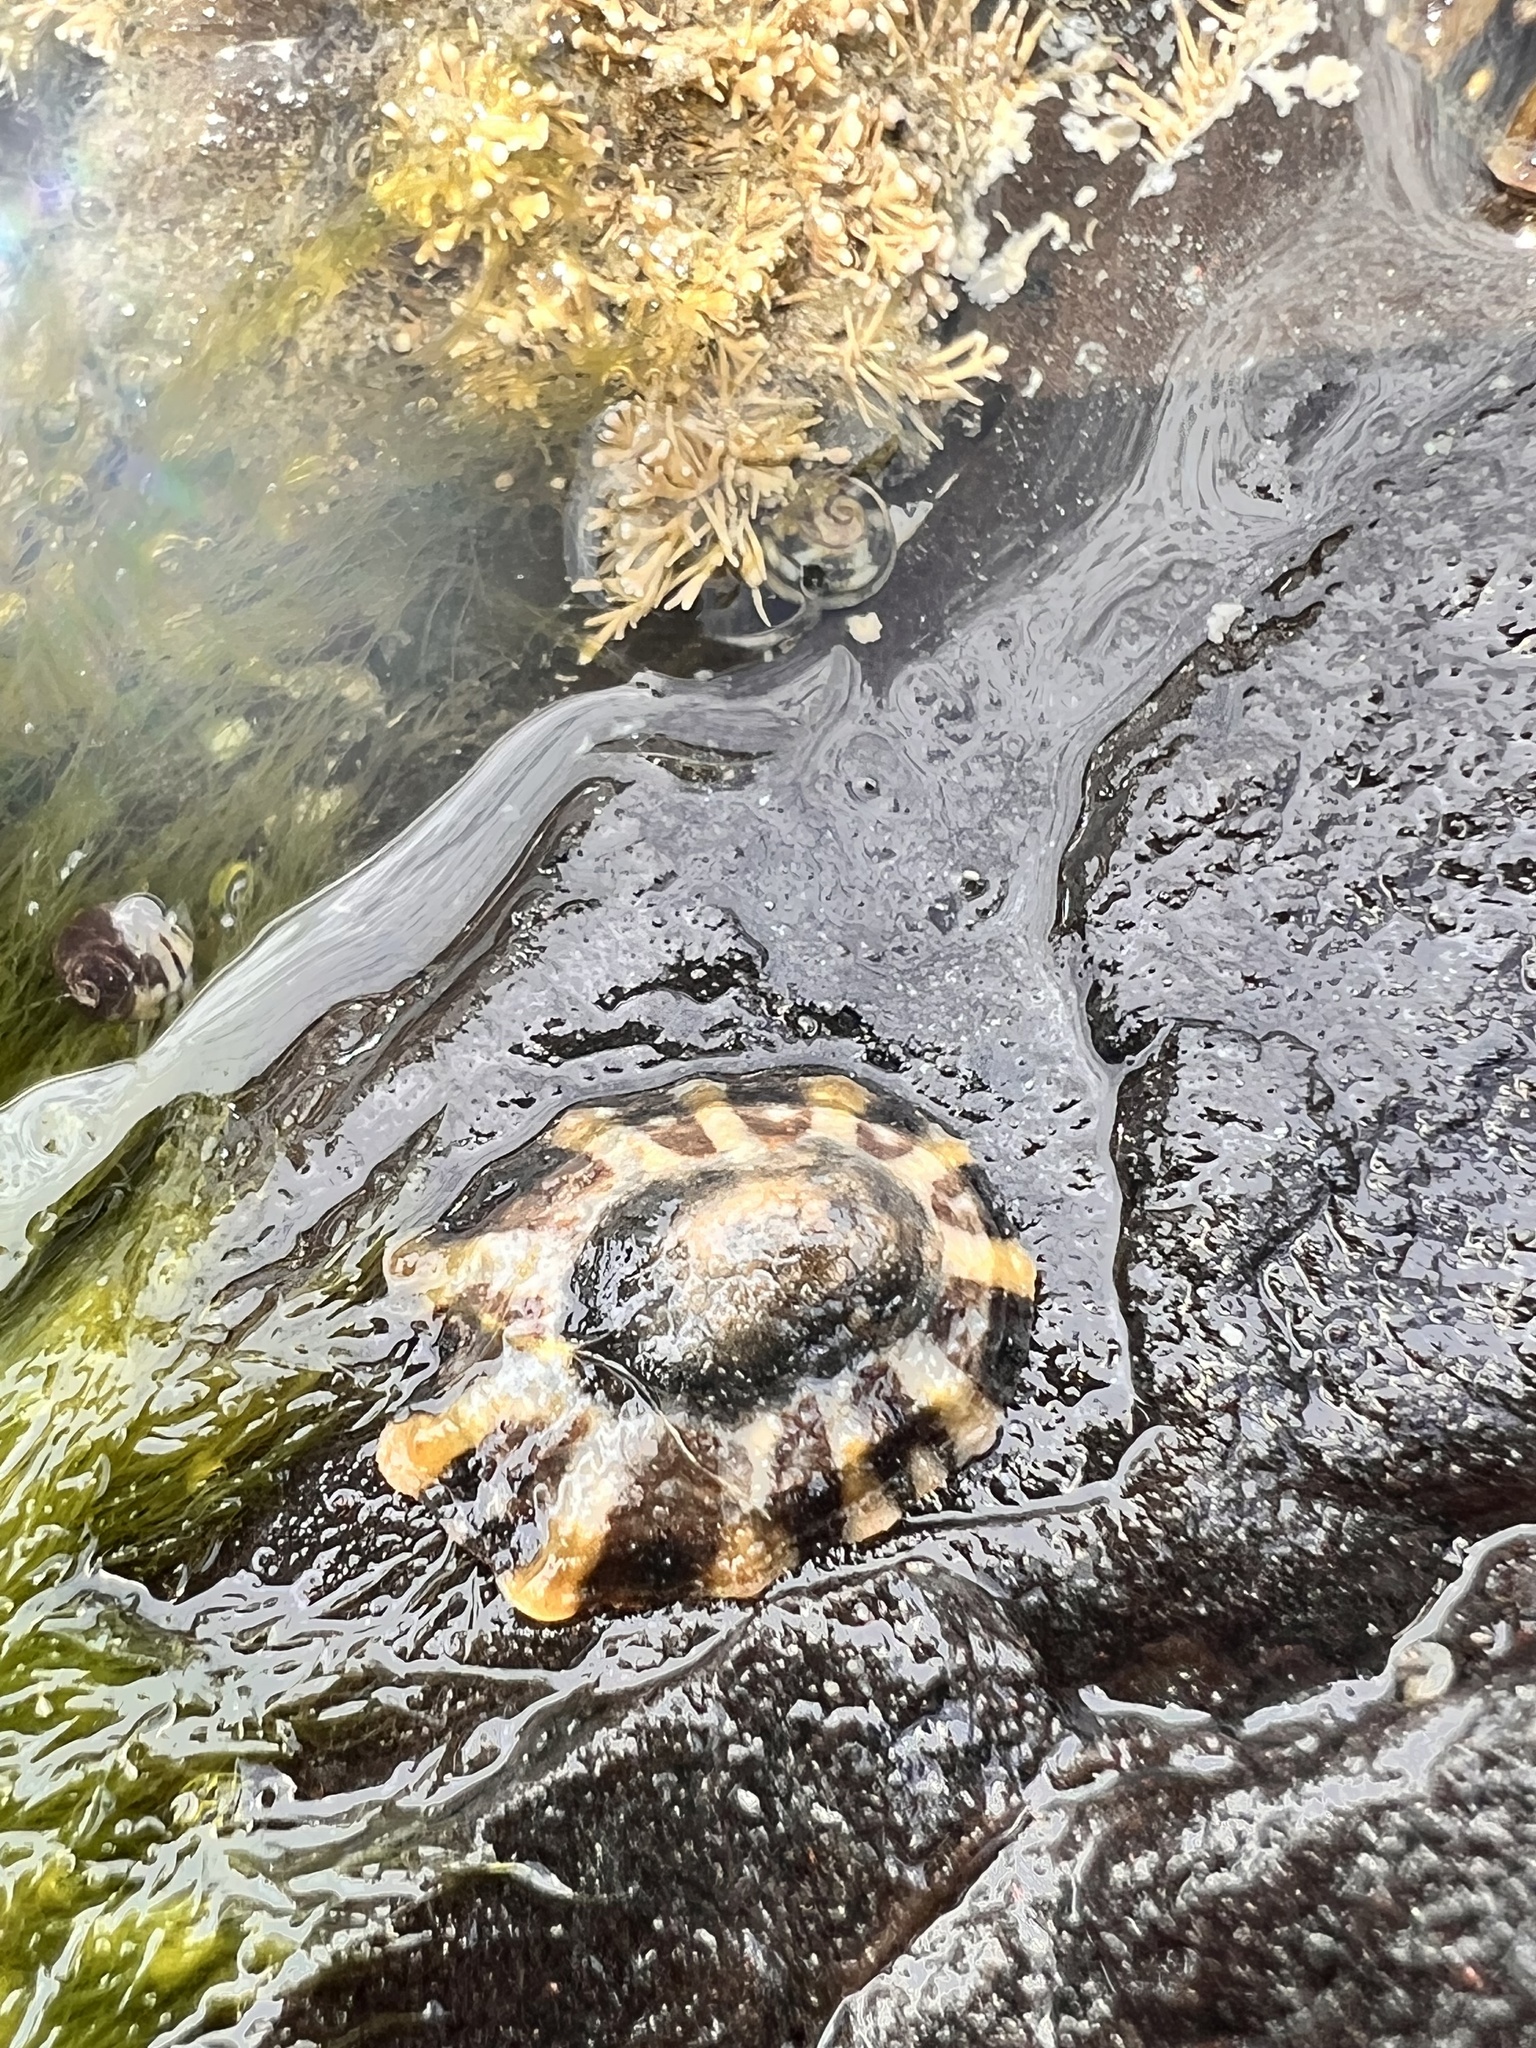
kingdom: Animalia
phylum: Mollusca
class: Gastropoda
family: Nacellidae
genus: Cellana
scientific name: Cellana ornata
